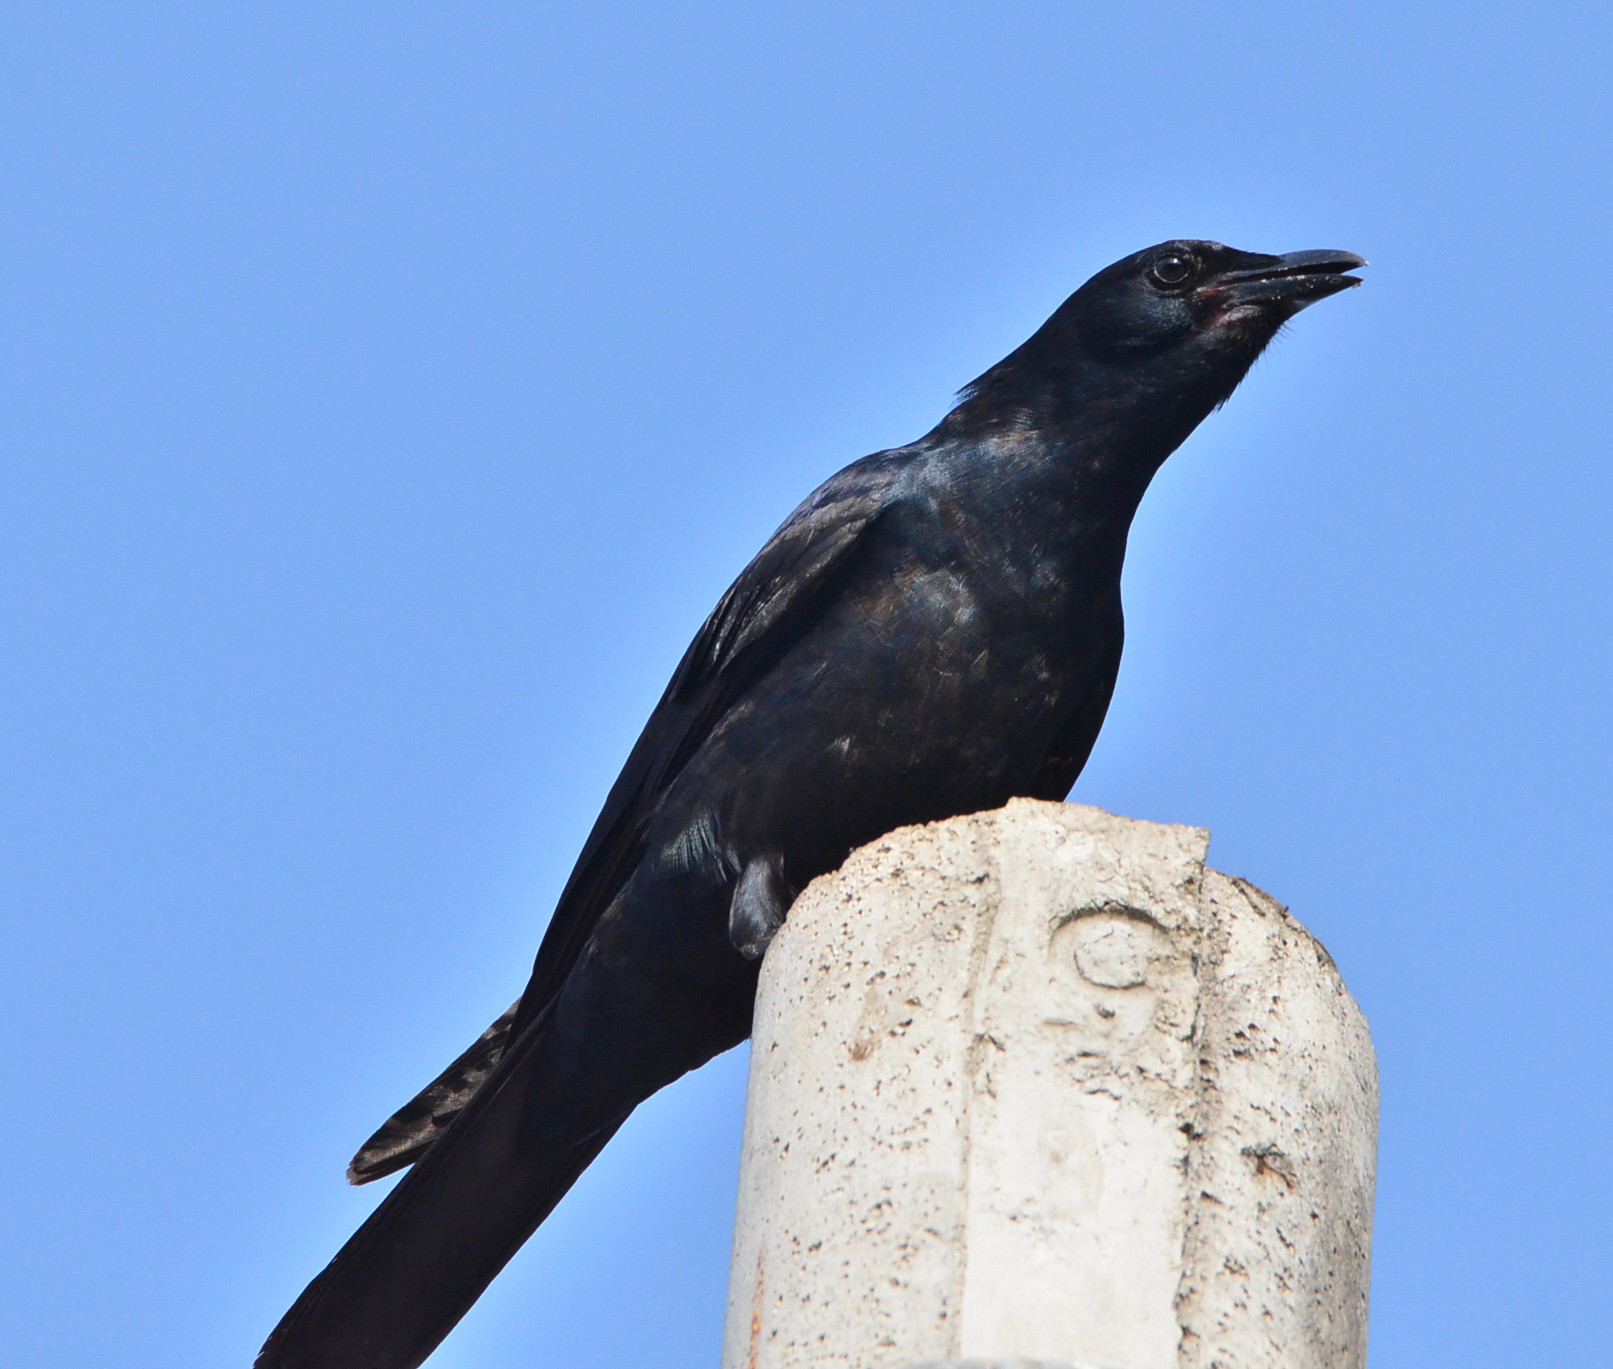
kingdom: Animalia
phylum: Chordata
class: Aves
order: Passeriformes
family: Corvidae
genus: Corvus
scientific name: Corvus sinaloae
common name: Sinaloa crow
